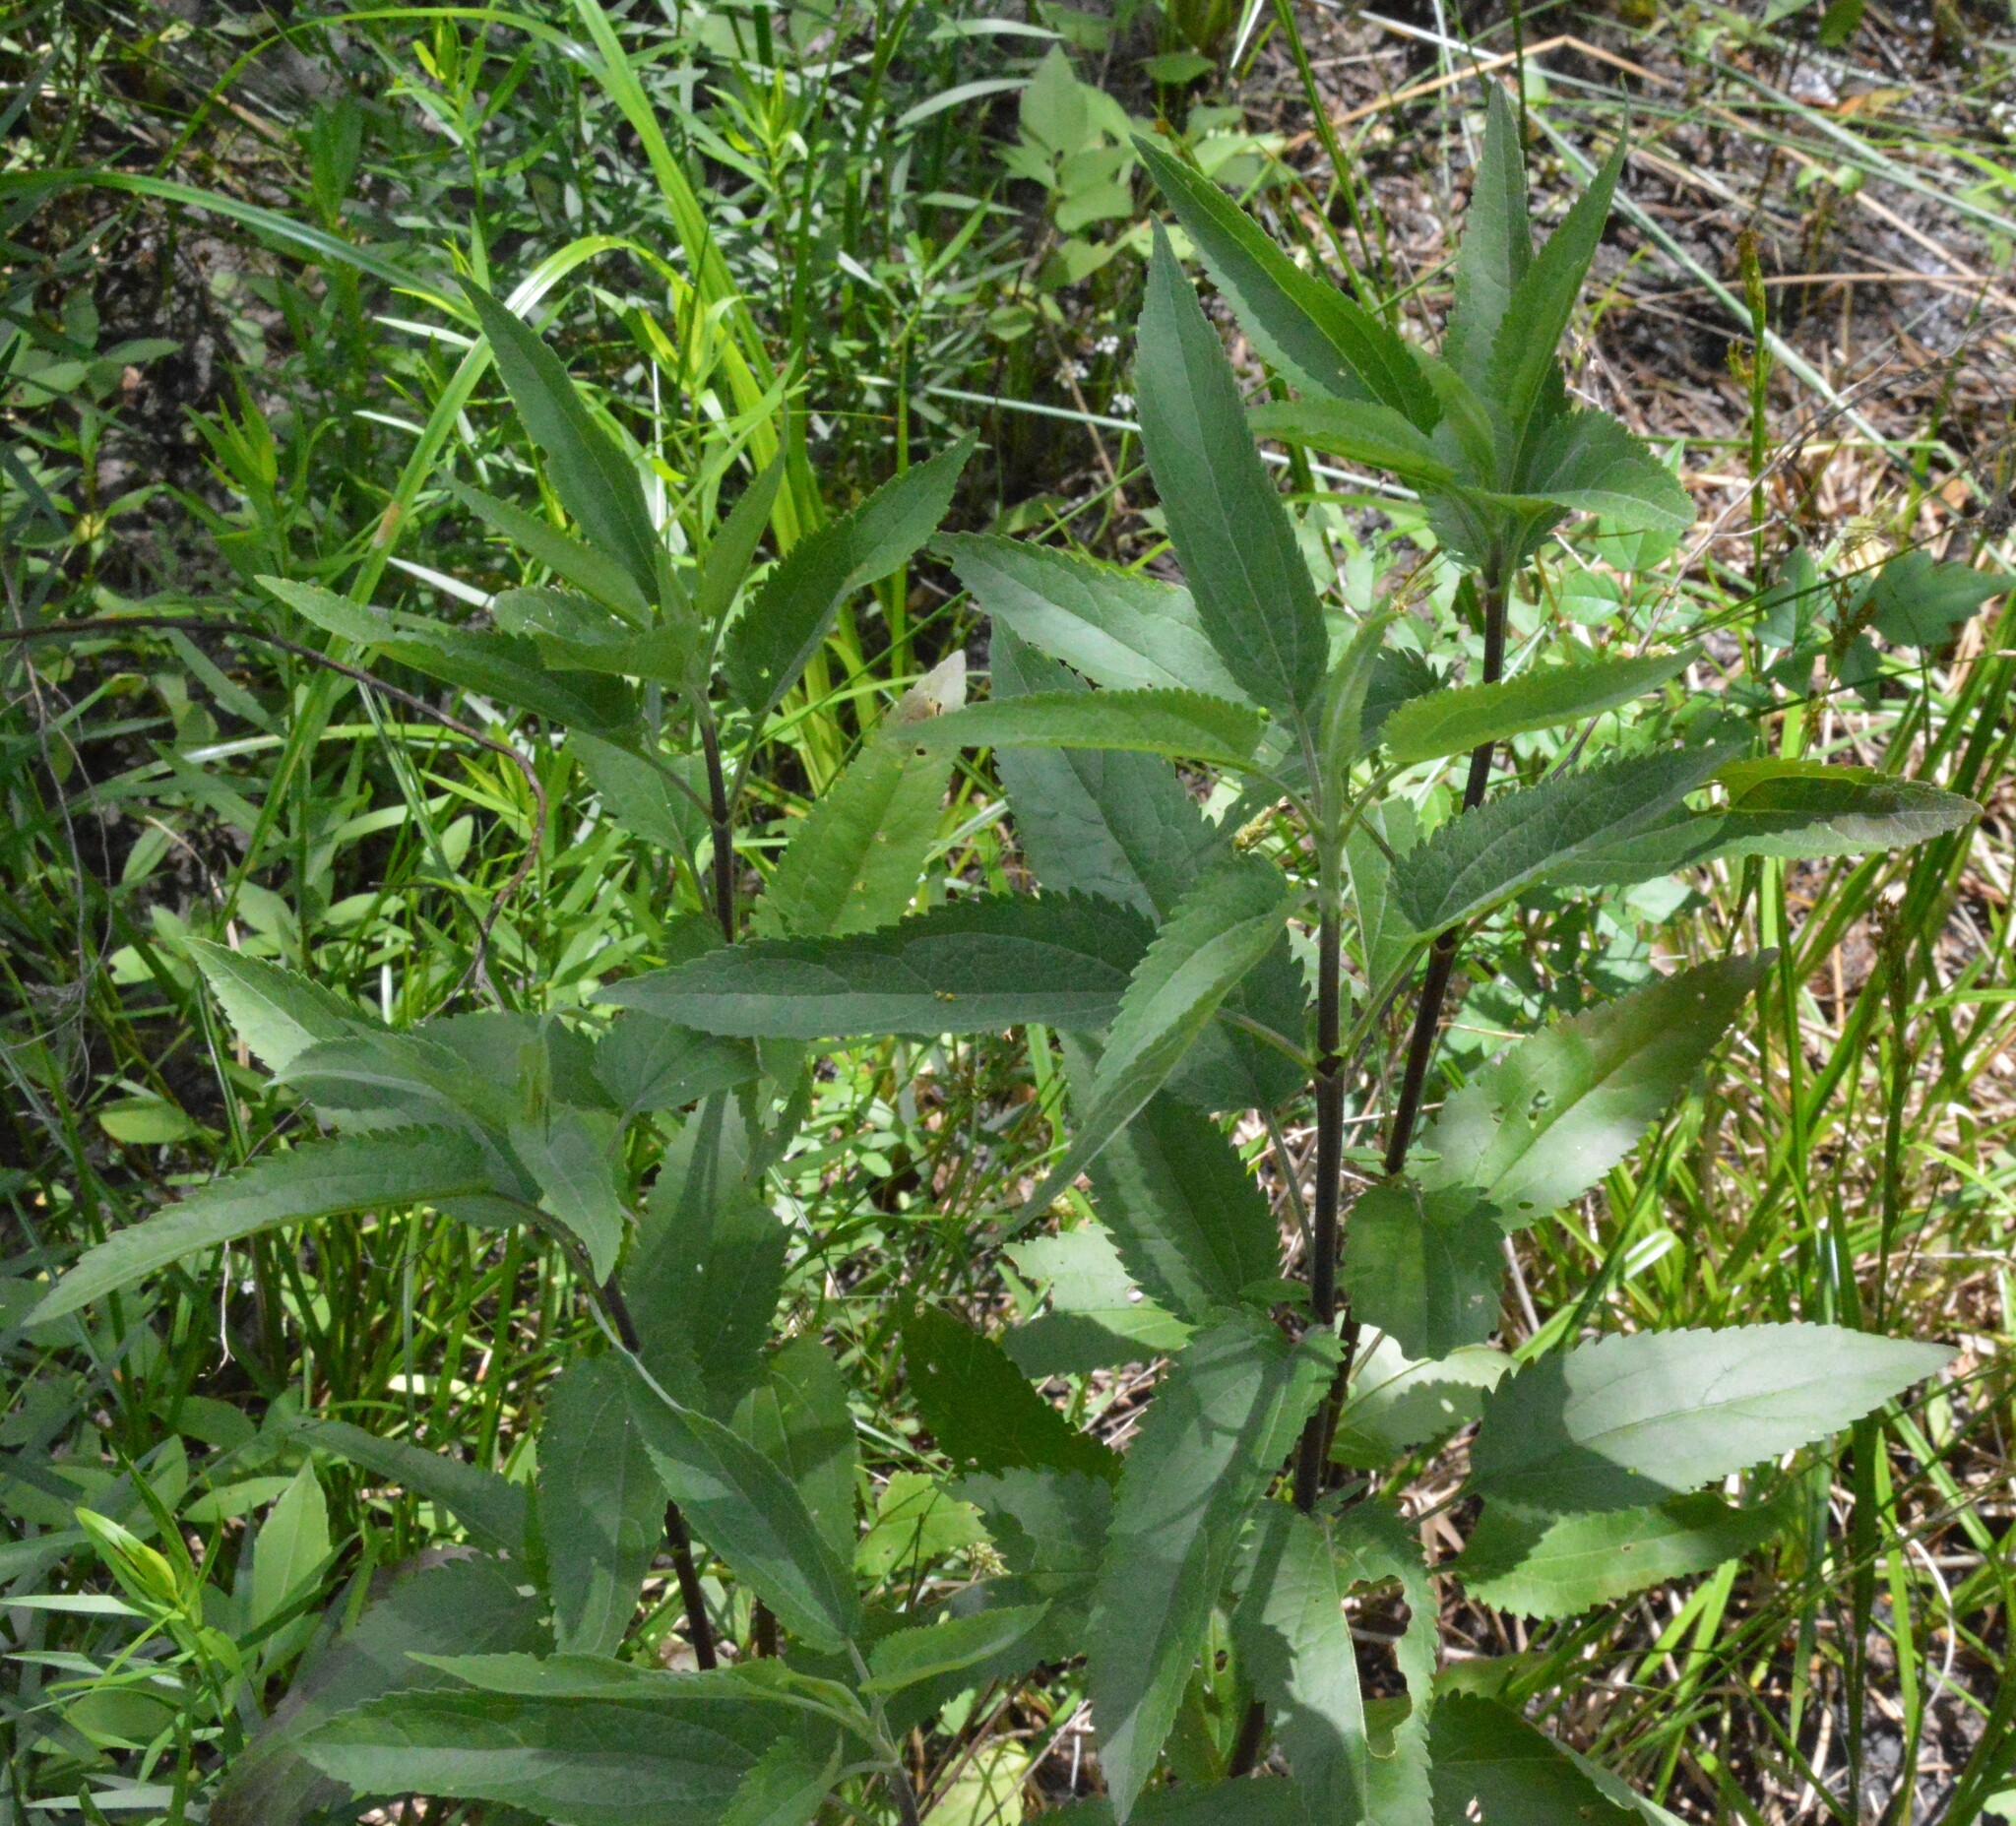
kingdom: Plantae
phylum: Tracheophyta
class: Magnoliopsida
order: Asterales
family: Asteraceae
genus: Eupatorium
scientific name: Eupatorium serotinum
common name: Late boneset
